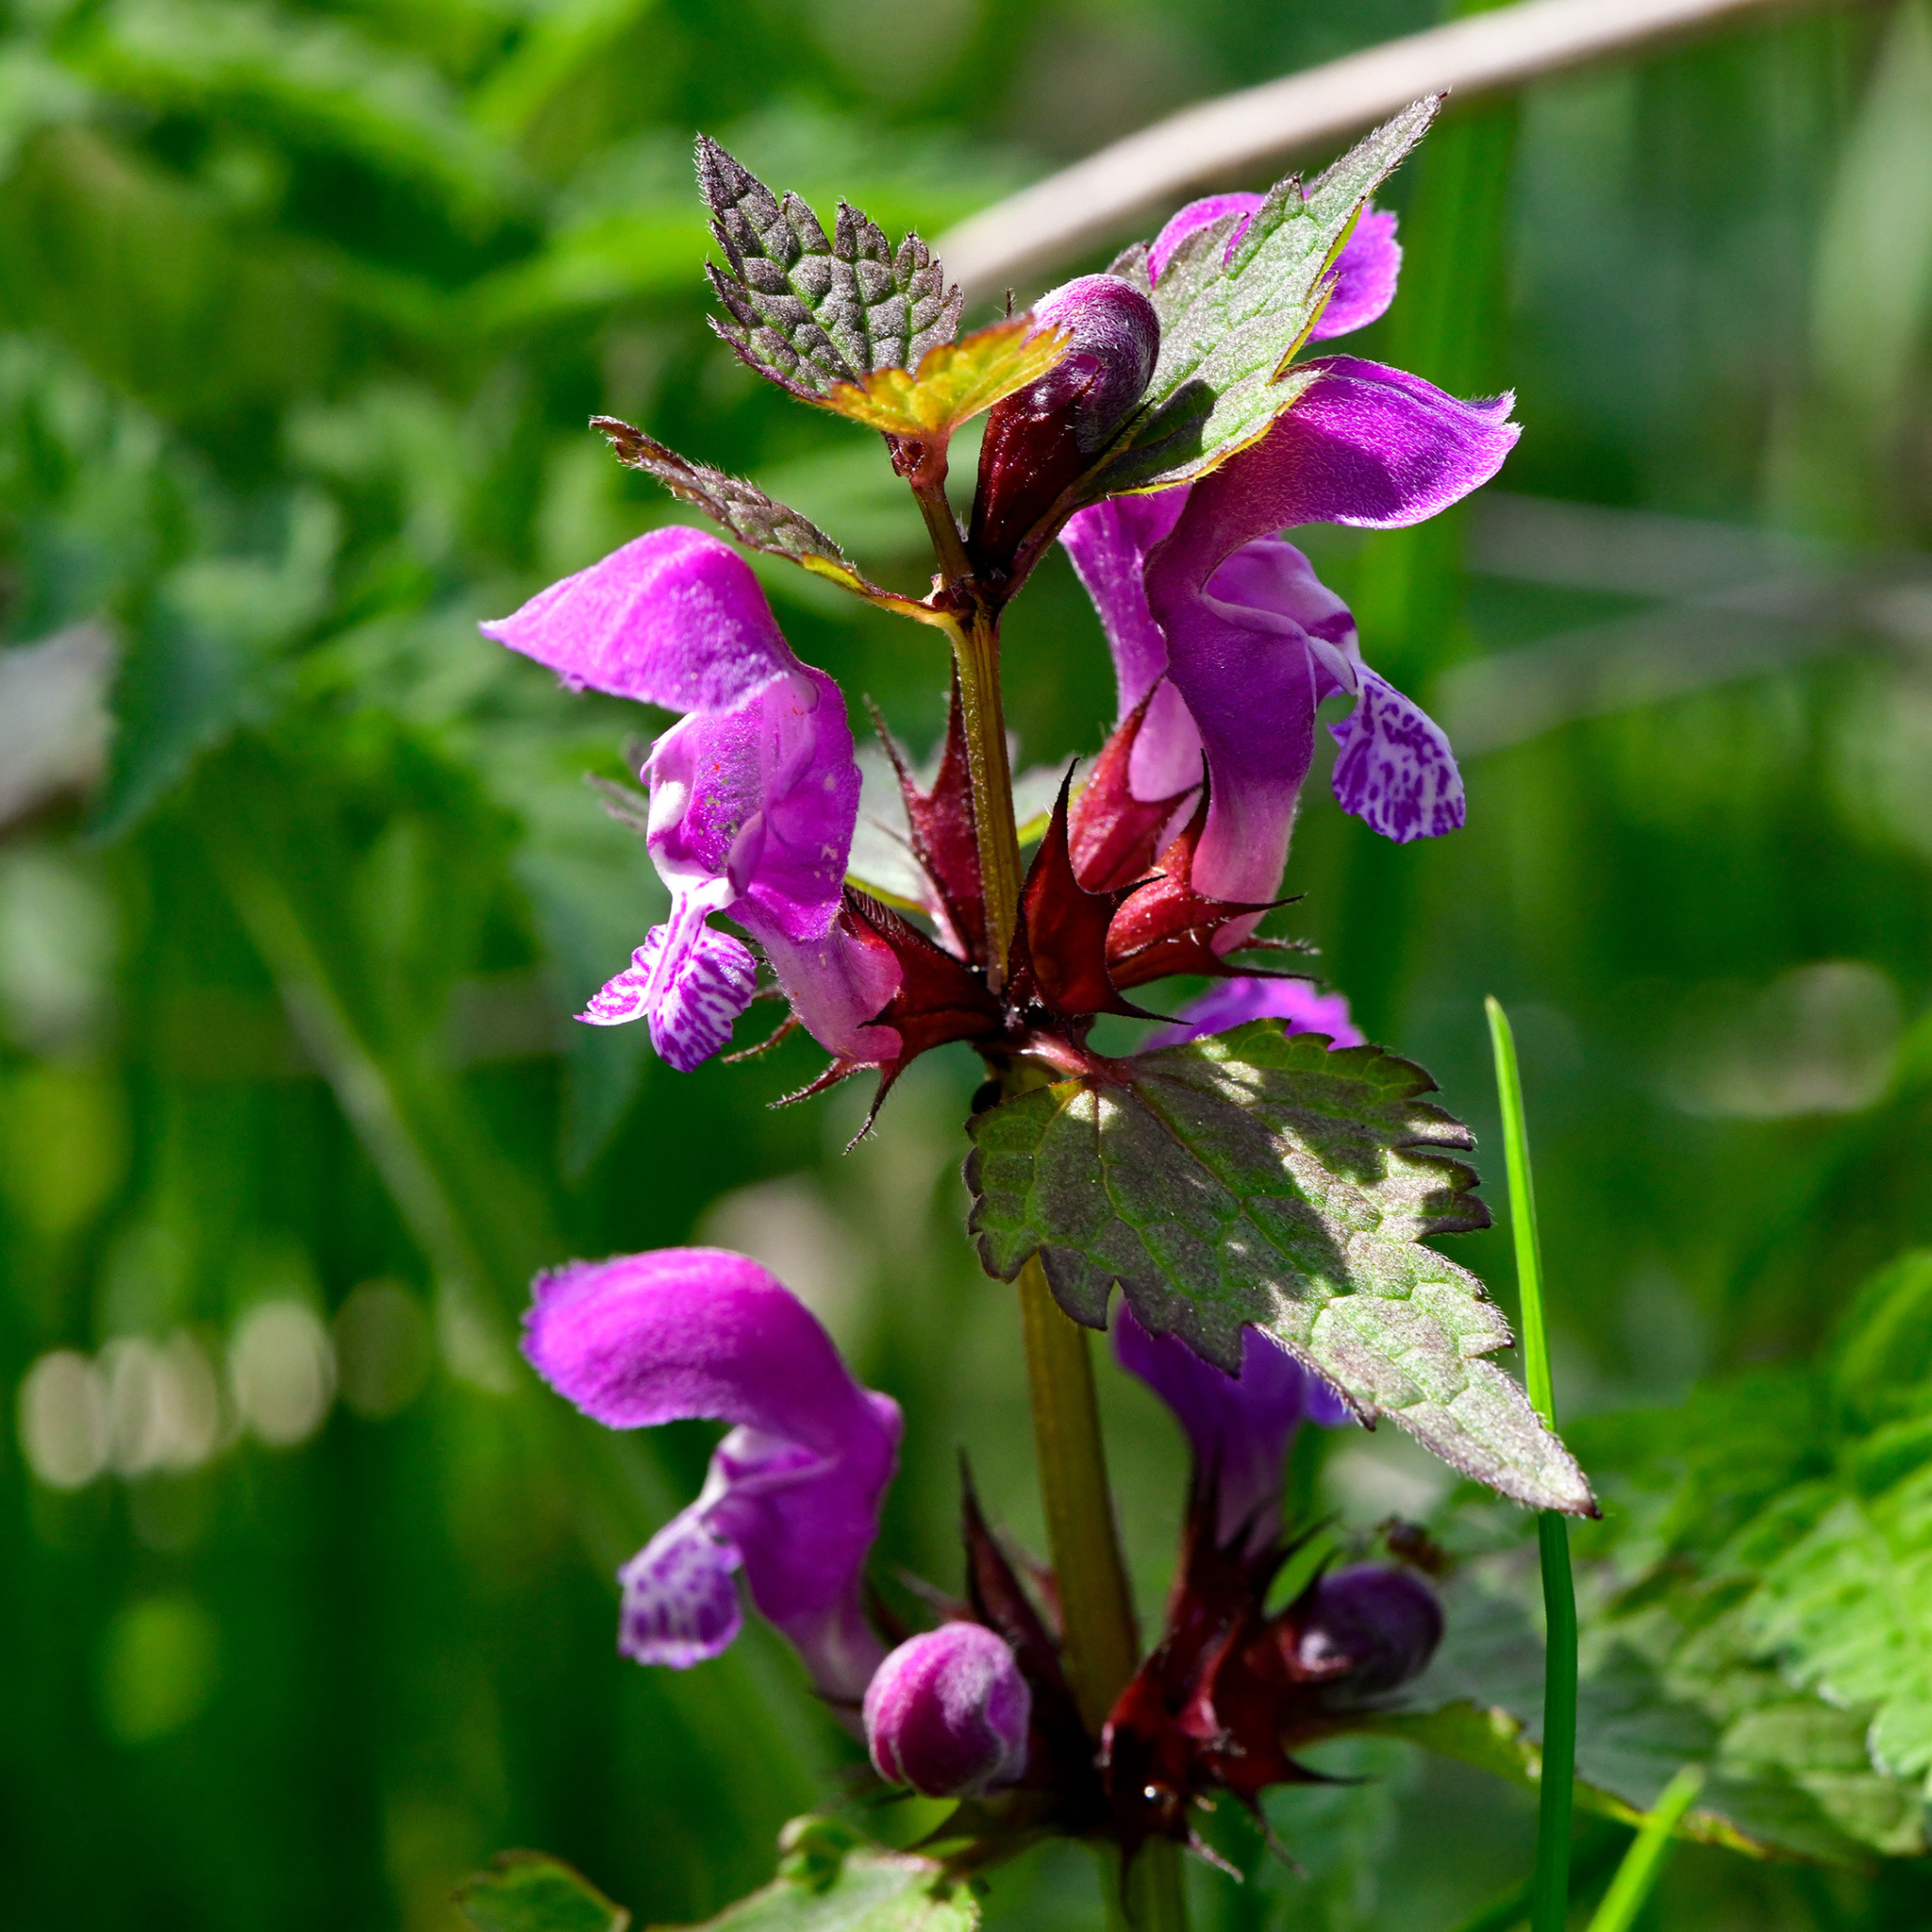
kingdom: Plantae
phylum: Tracheophyta
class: Magnoliopsida
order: Lamiales
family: Lamiaceae
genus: Lamium
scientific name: Lamium maculatum
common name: Spotted dead-nettle
